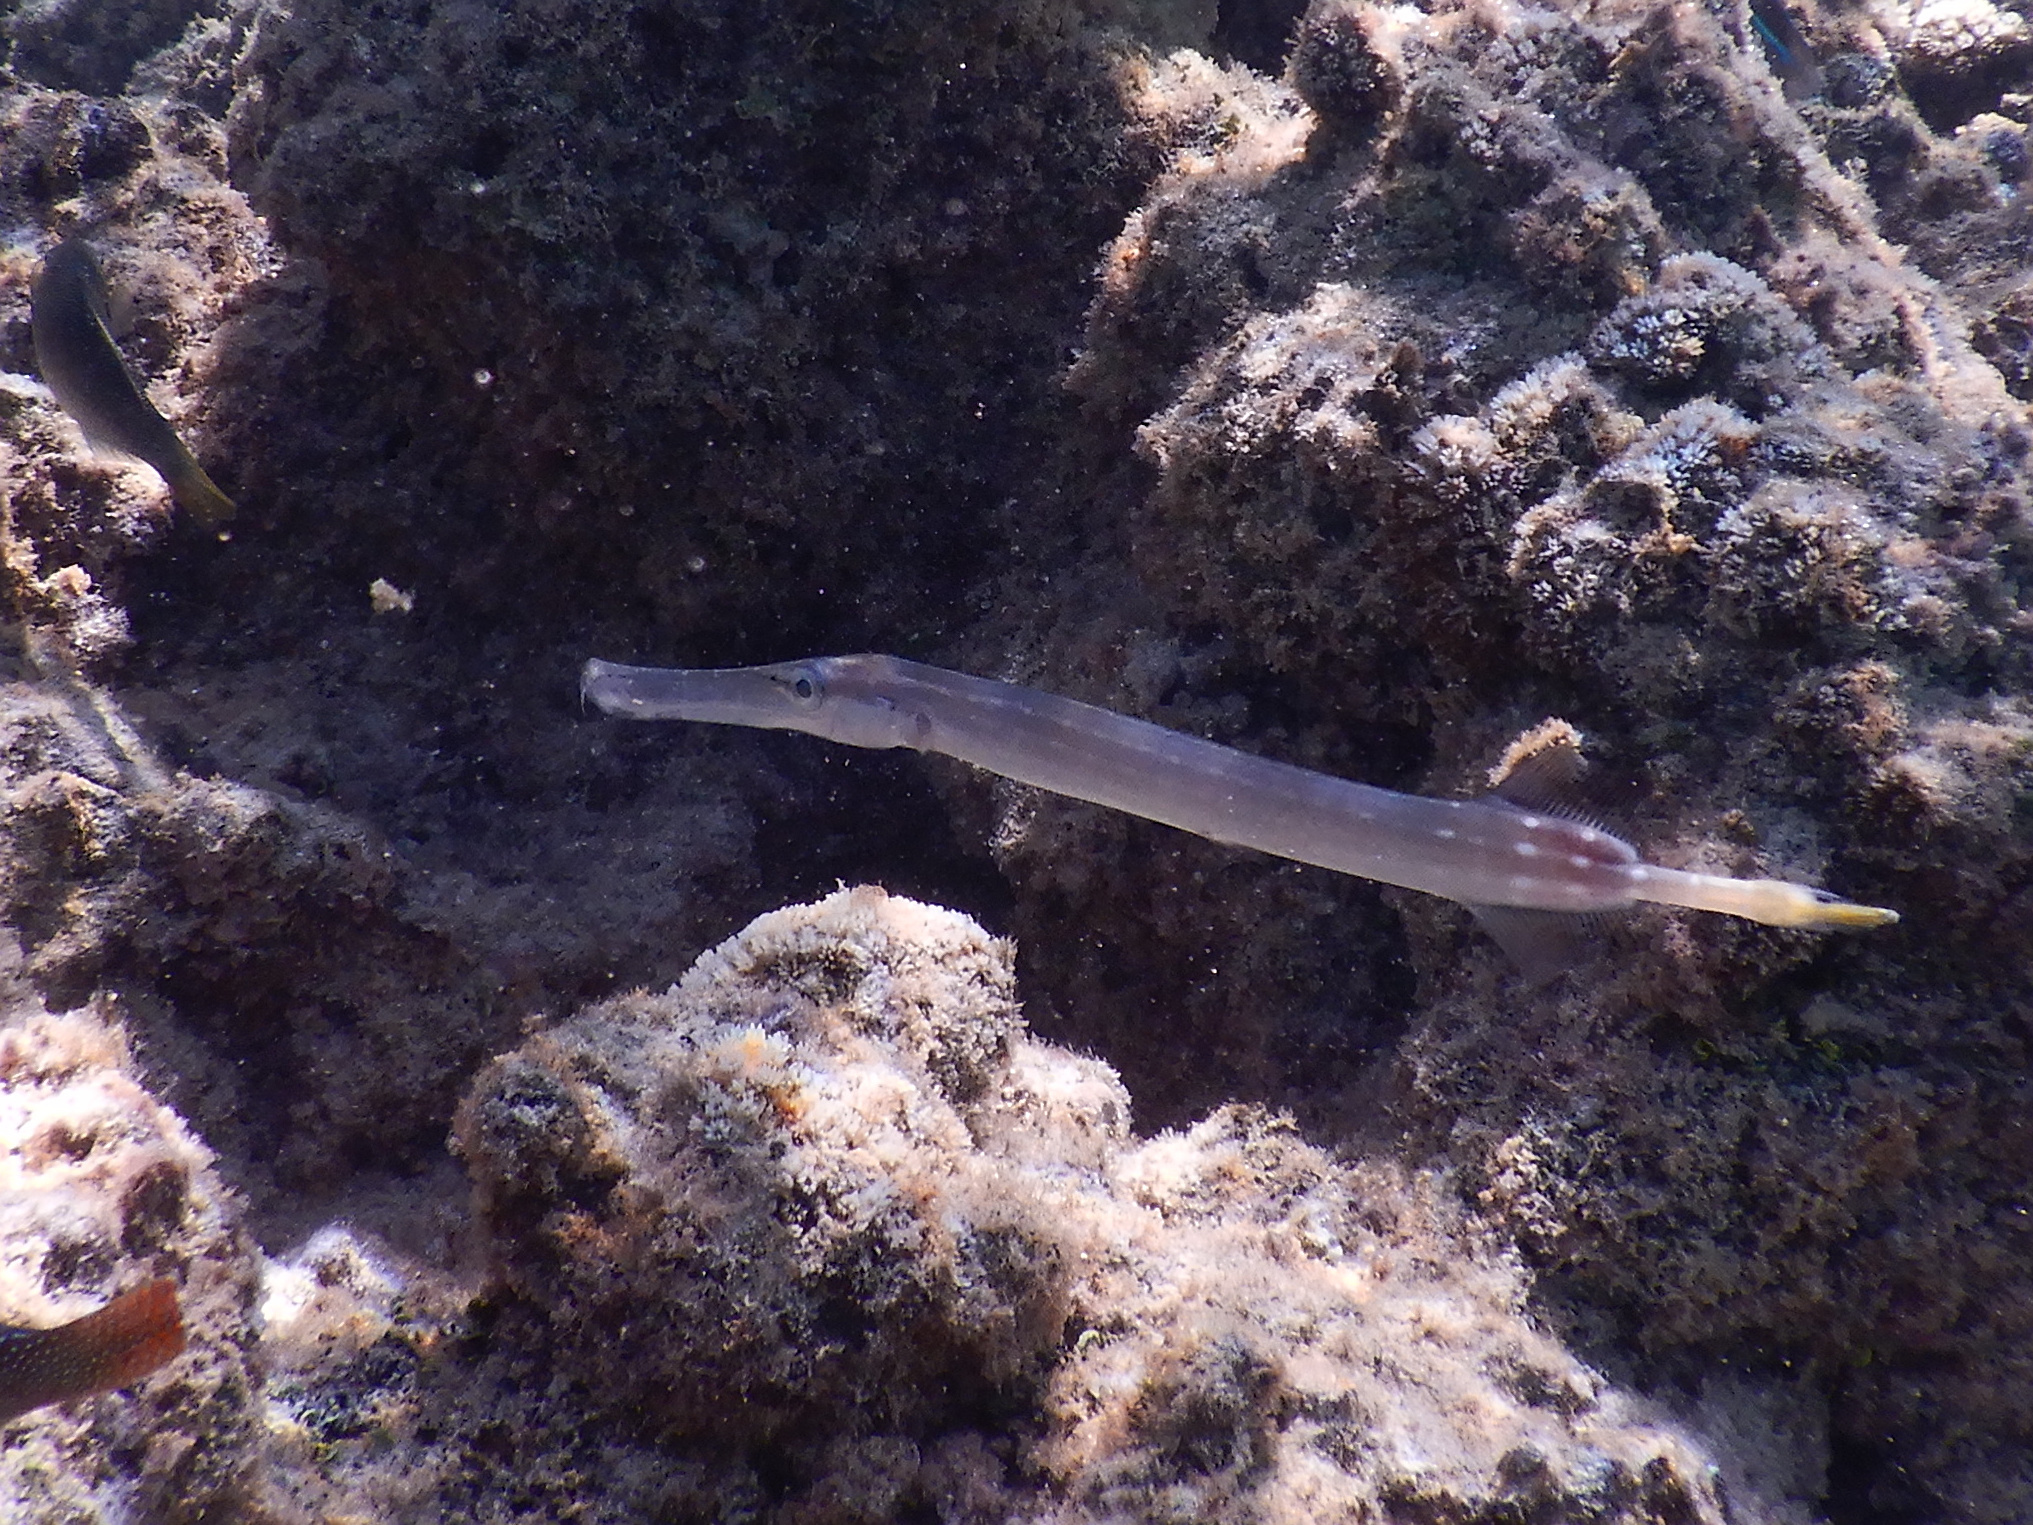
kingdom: Animalia
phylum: Chordata
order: Syngnathiformes
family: Aulostomidae
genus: Aulostomus
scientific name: Aulostomus chinensis
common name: Chinese trumpetfish
